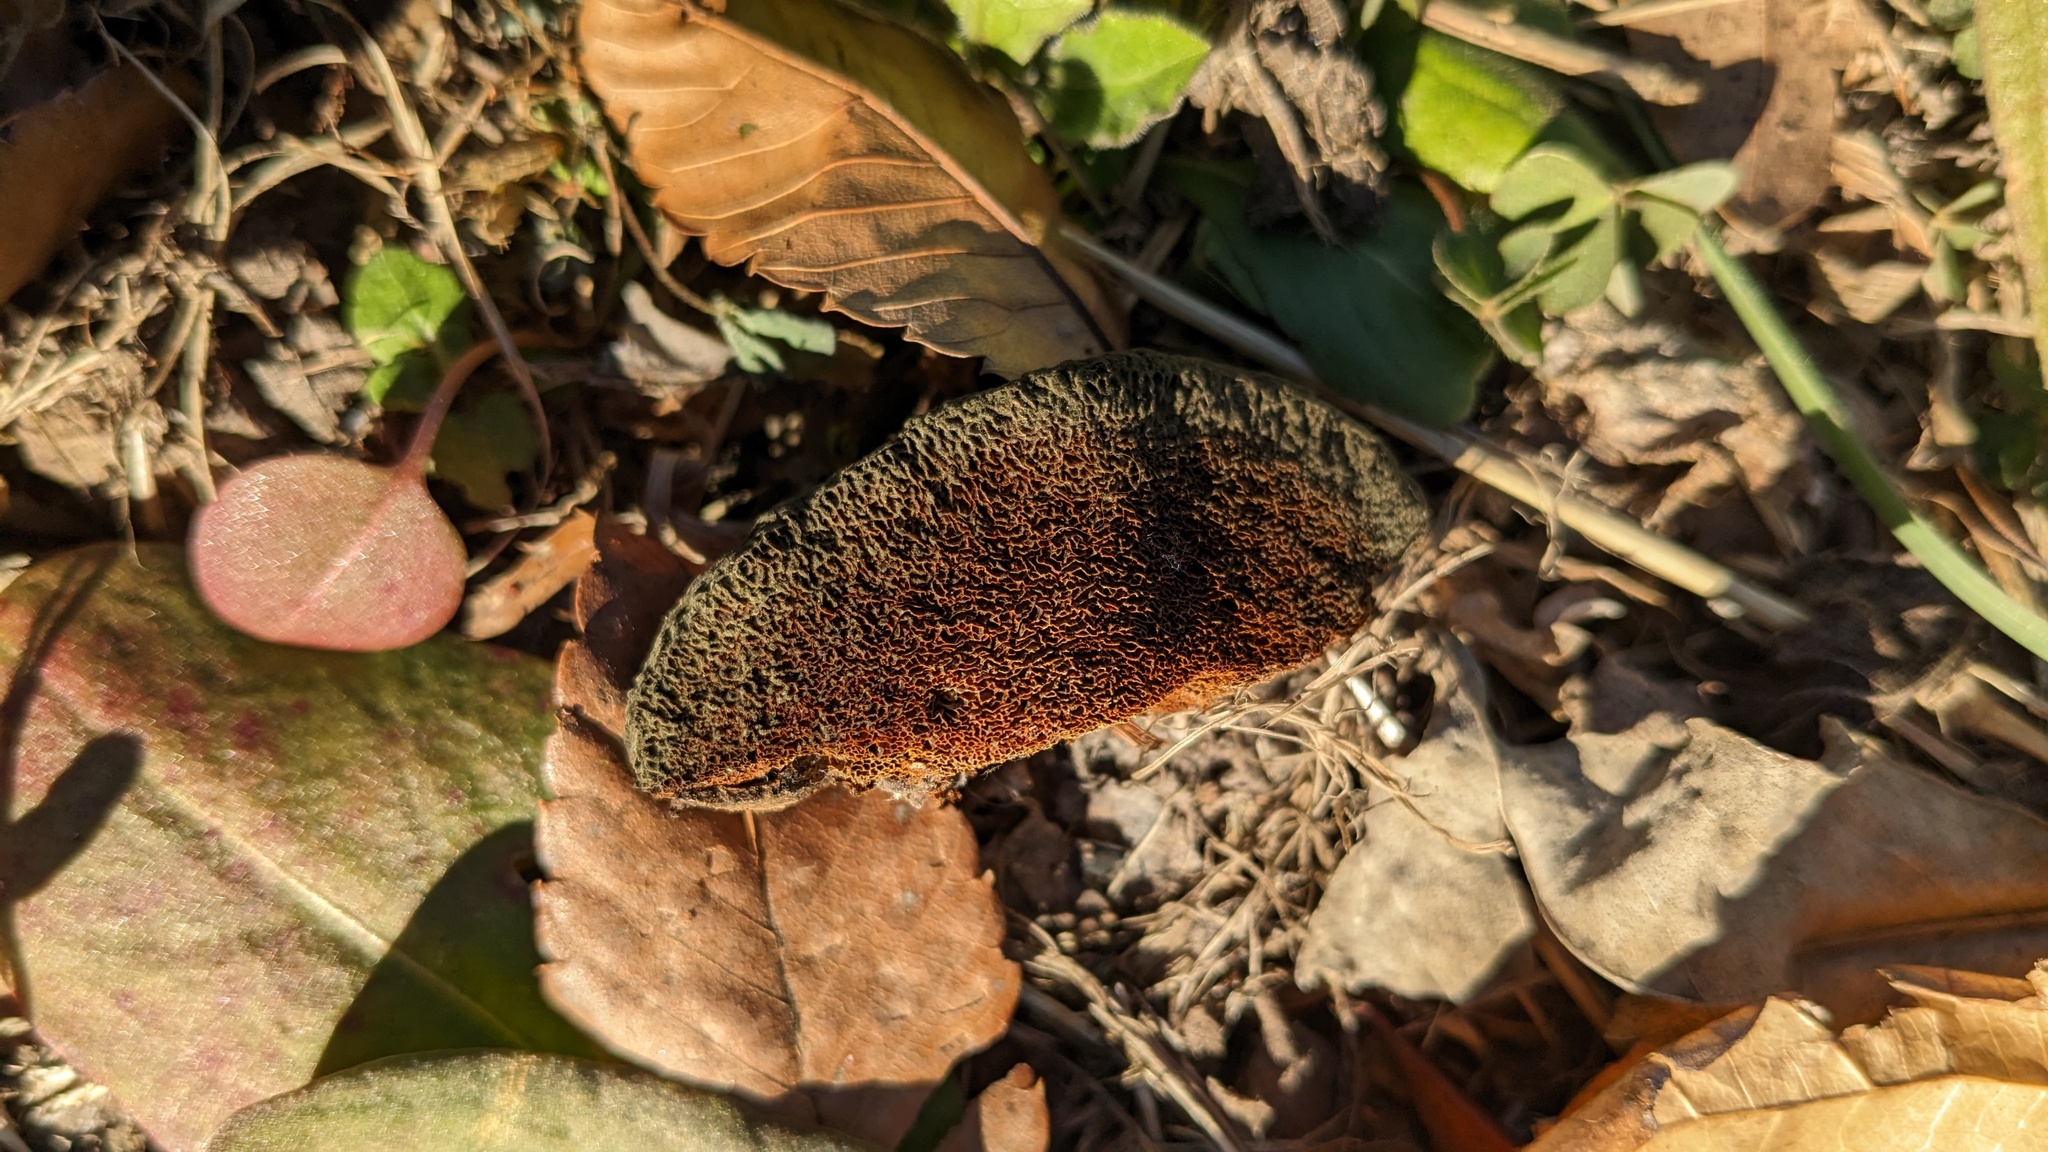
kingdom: Fungi
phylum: Basidiomycota
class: Agaricomycetes
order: Hymenochaetales
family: Hymenochaetaceae
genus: Inocutis
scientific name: Inocutis mikadoi
